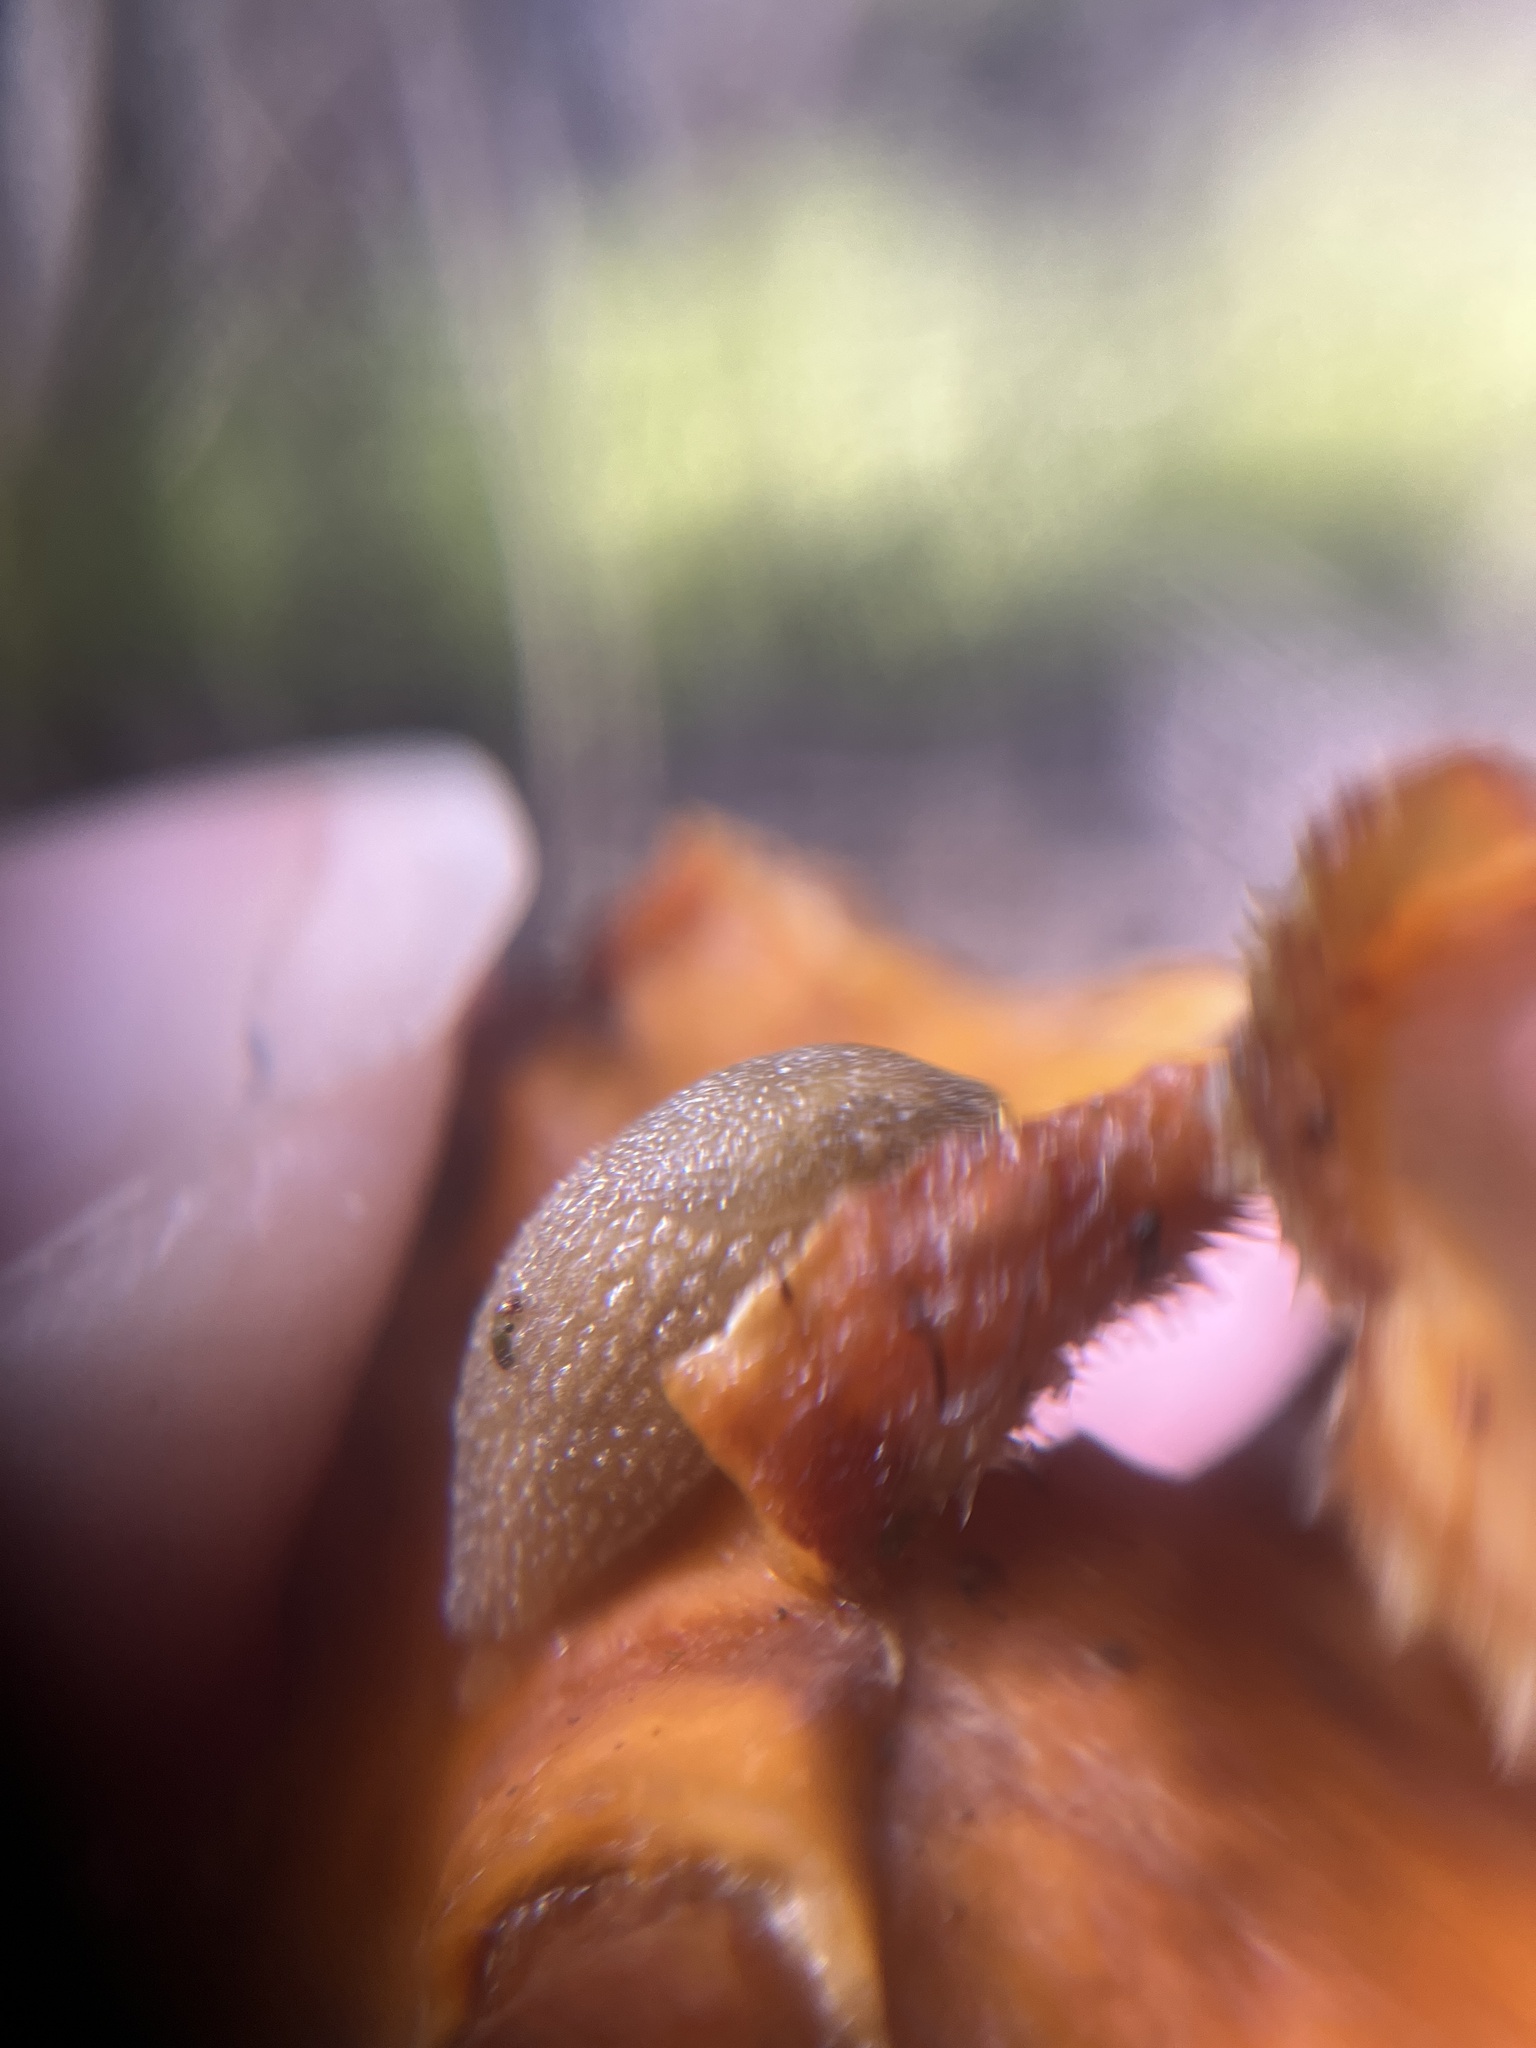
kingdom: Animalia
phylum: Mollusca
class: Gastropoda
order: Stylommatophora
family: Arionidae
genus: Arion
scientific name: Arion intermedius
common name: Hedgehog slug
